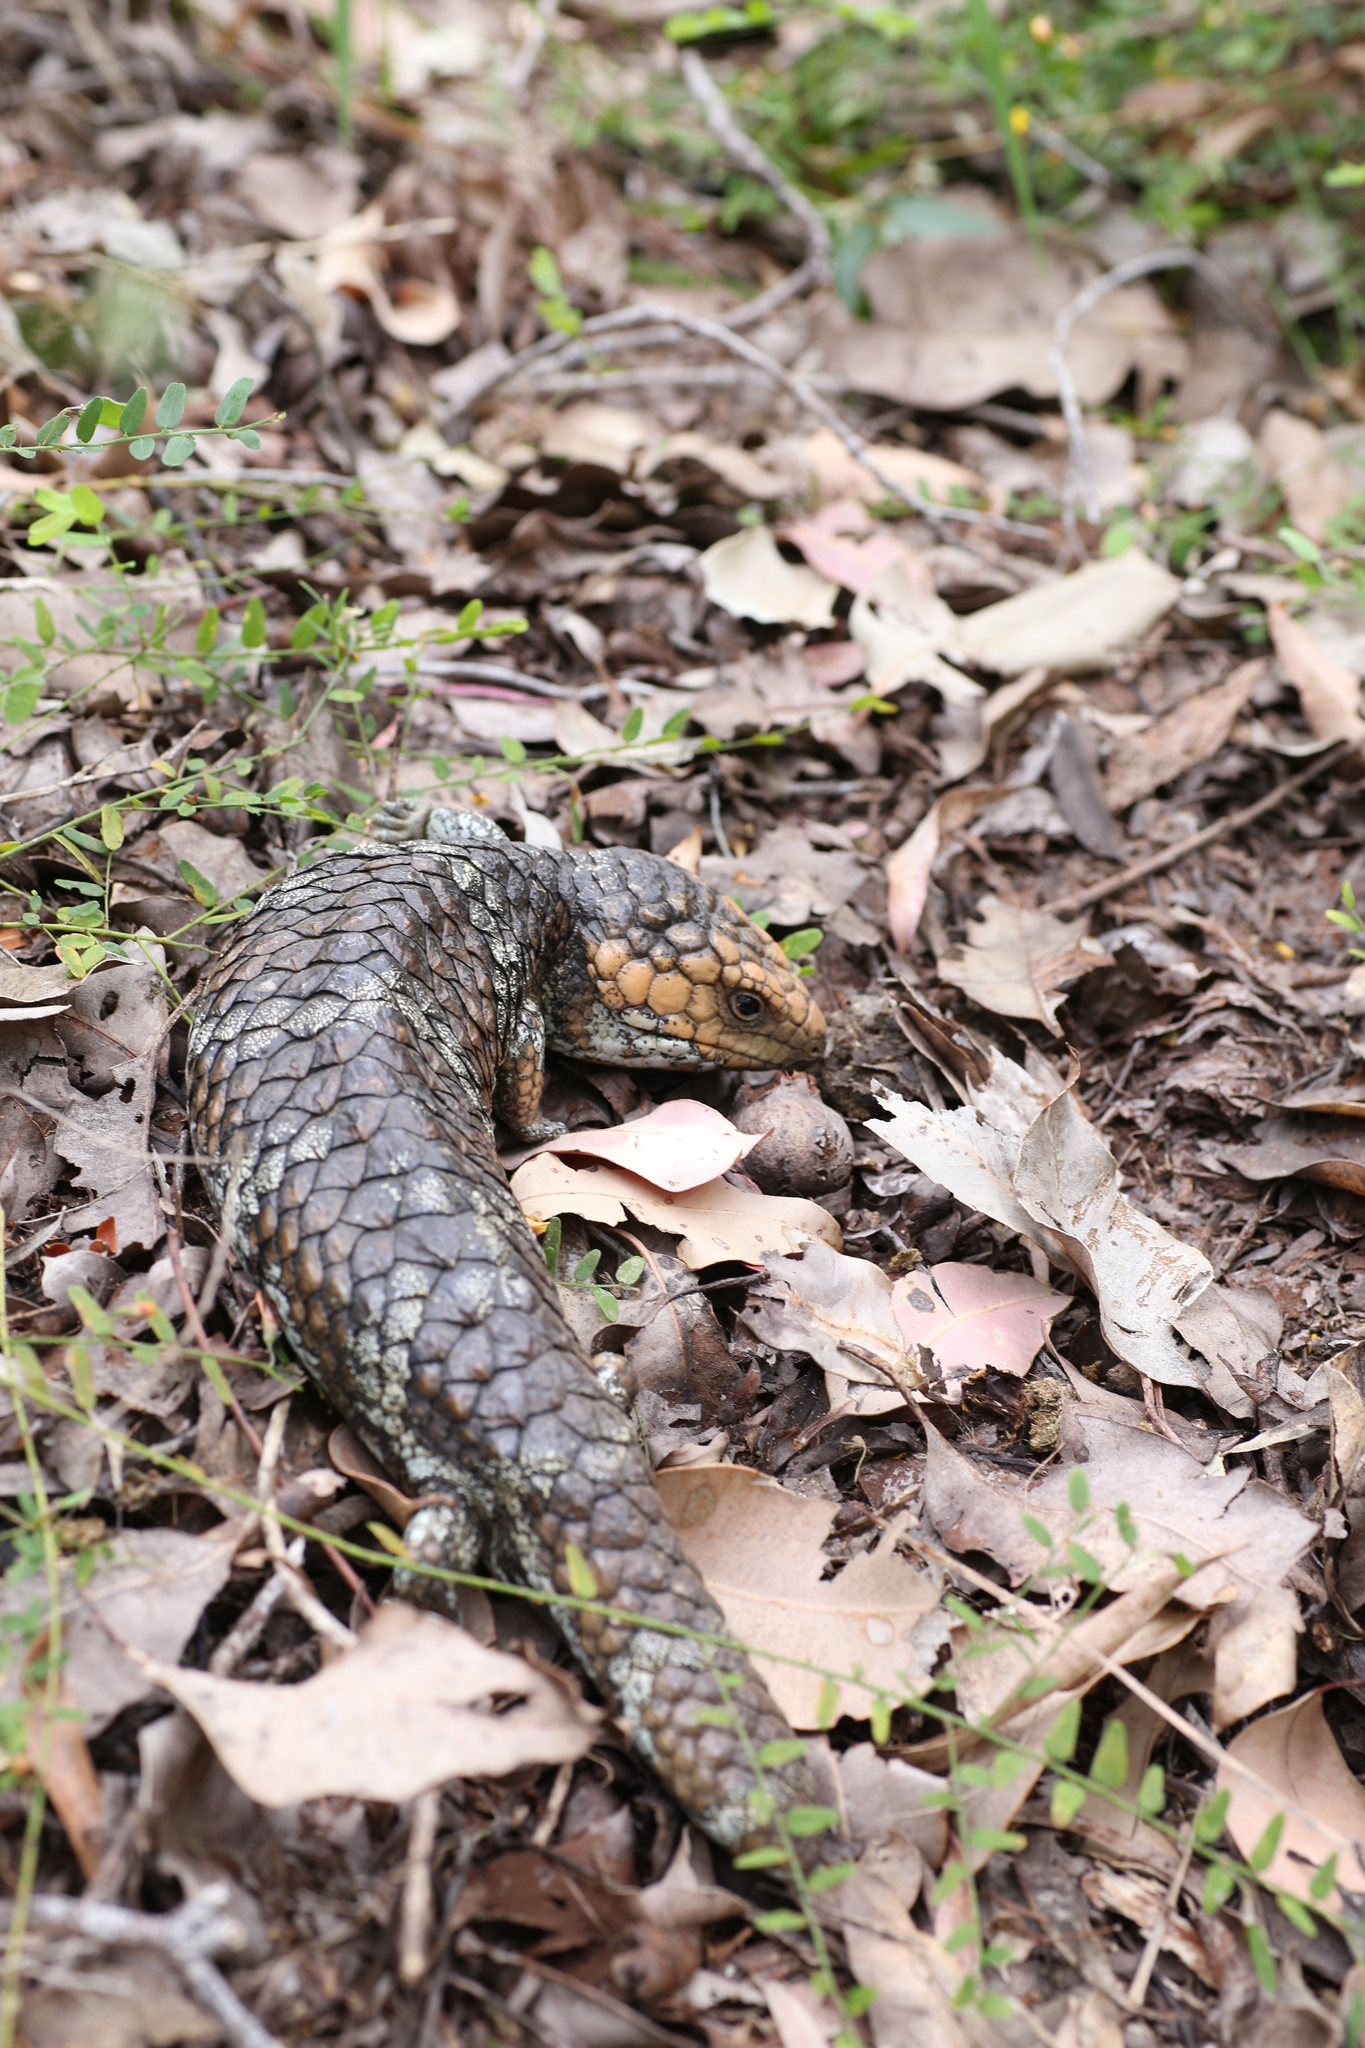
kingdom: Animalia
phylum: Chordata
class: Squamata
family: Scincidae
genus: Tiliqua
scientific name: Tiliqua rugosa
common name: Pinecone lizard
